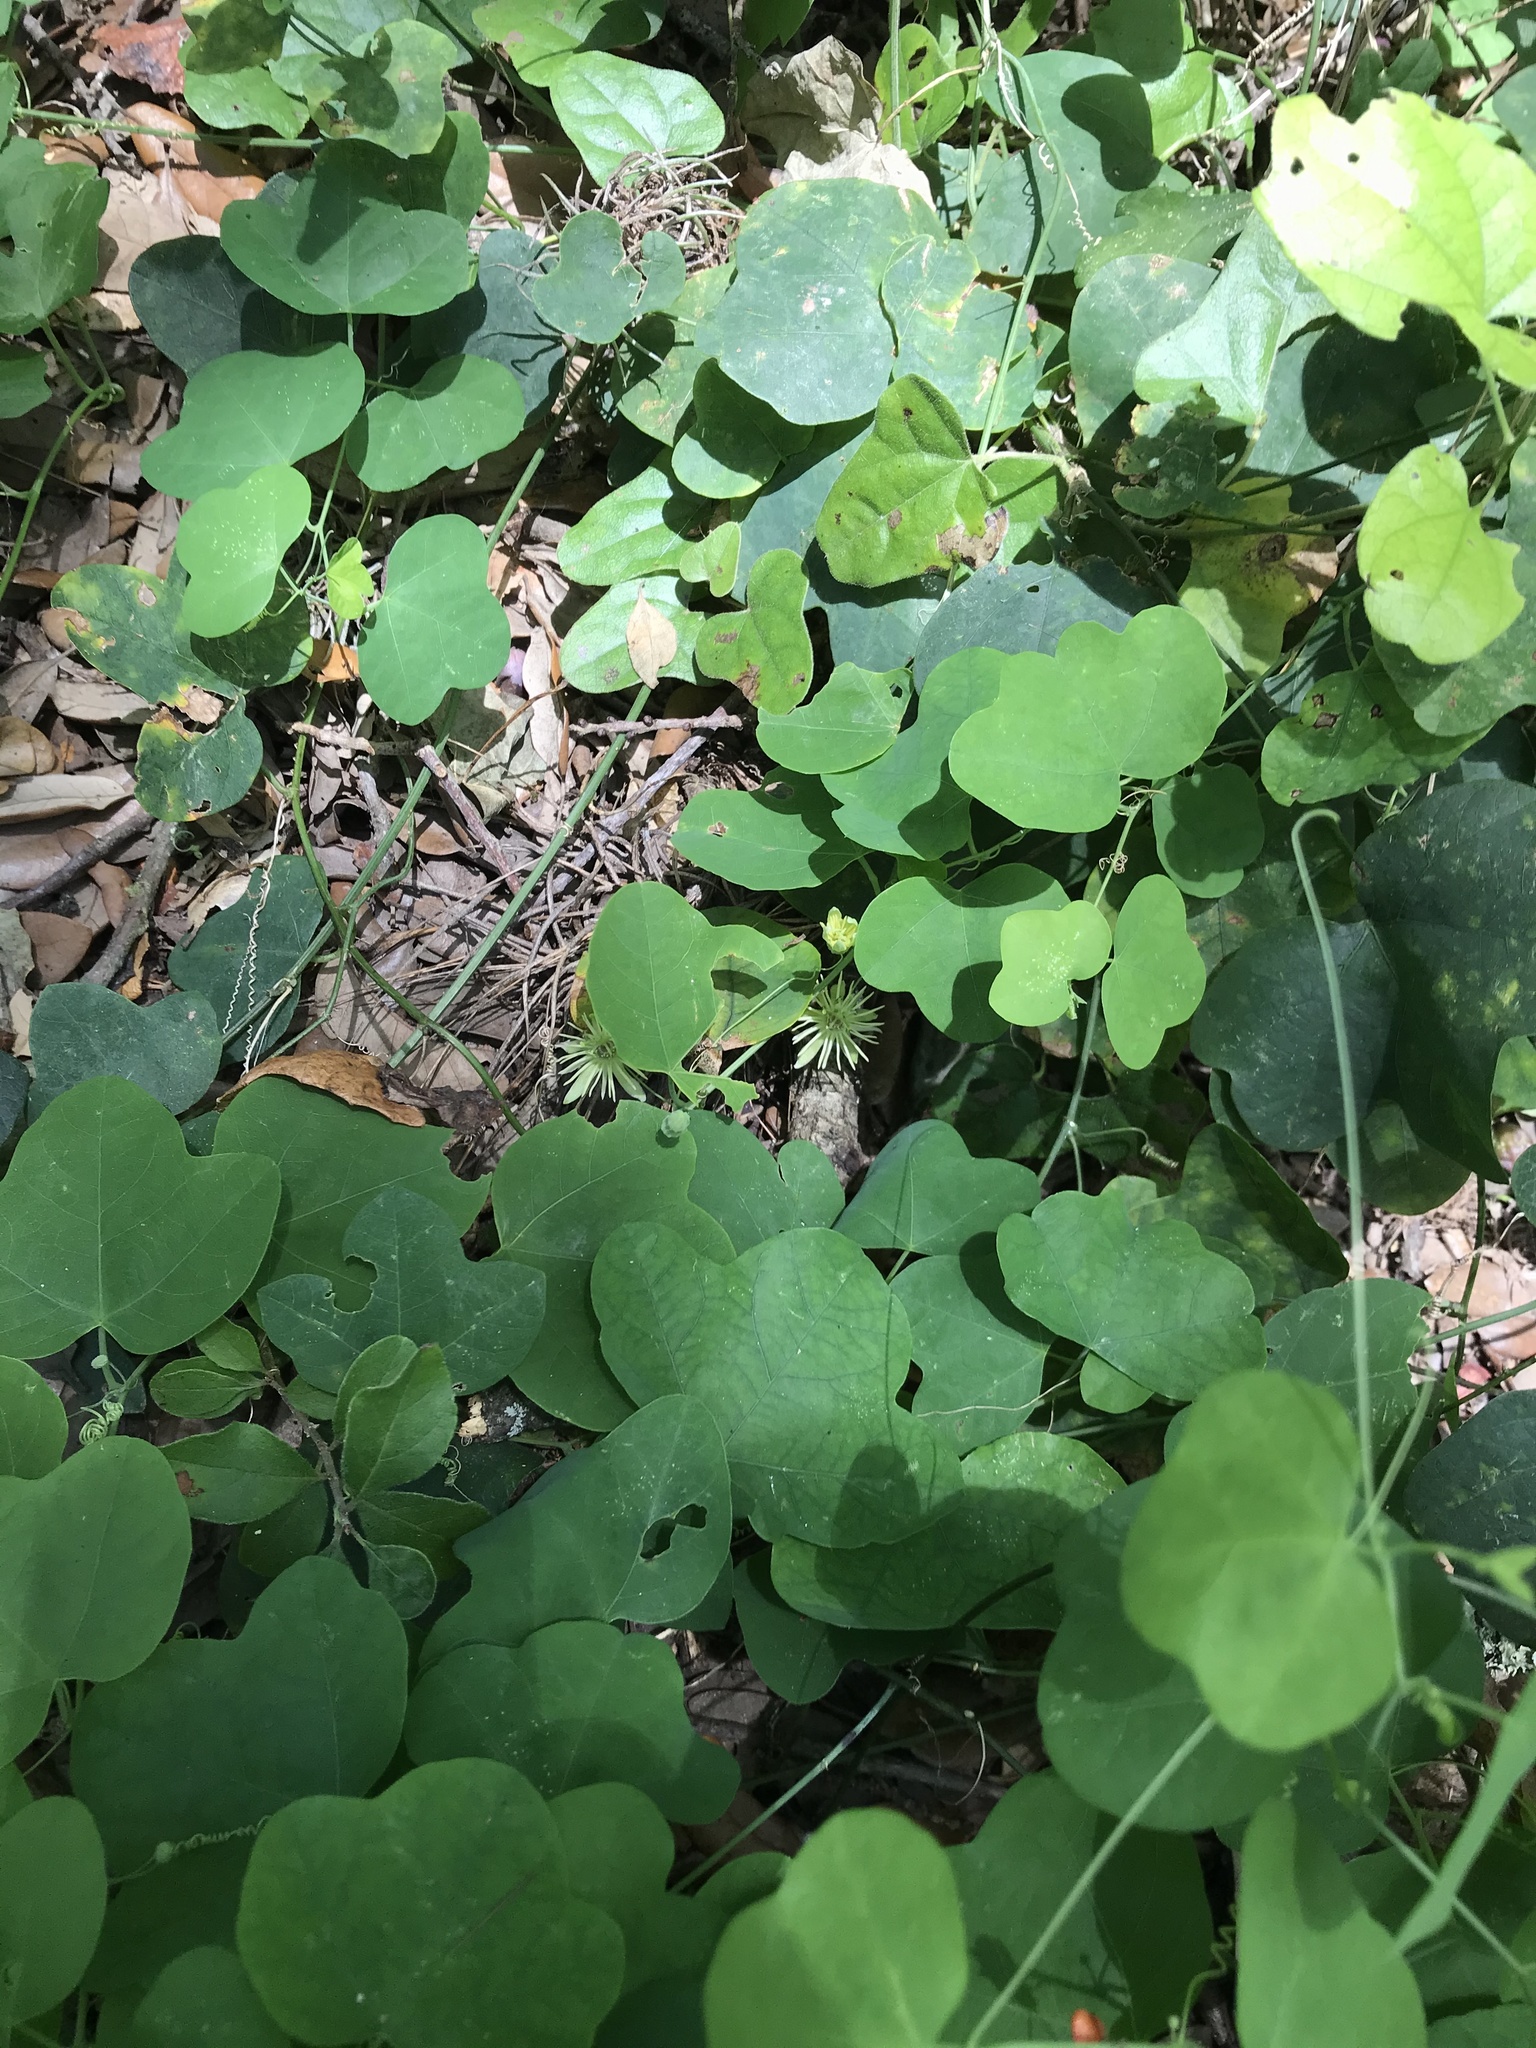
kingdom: Plantae
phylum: Tracheophyta
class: Magnoliopsida
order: Malpighiales
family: Passifloraceae
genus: Passiflora
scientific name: Passiflora lutea
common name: Yellow passionflower
